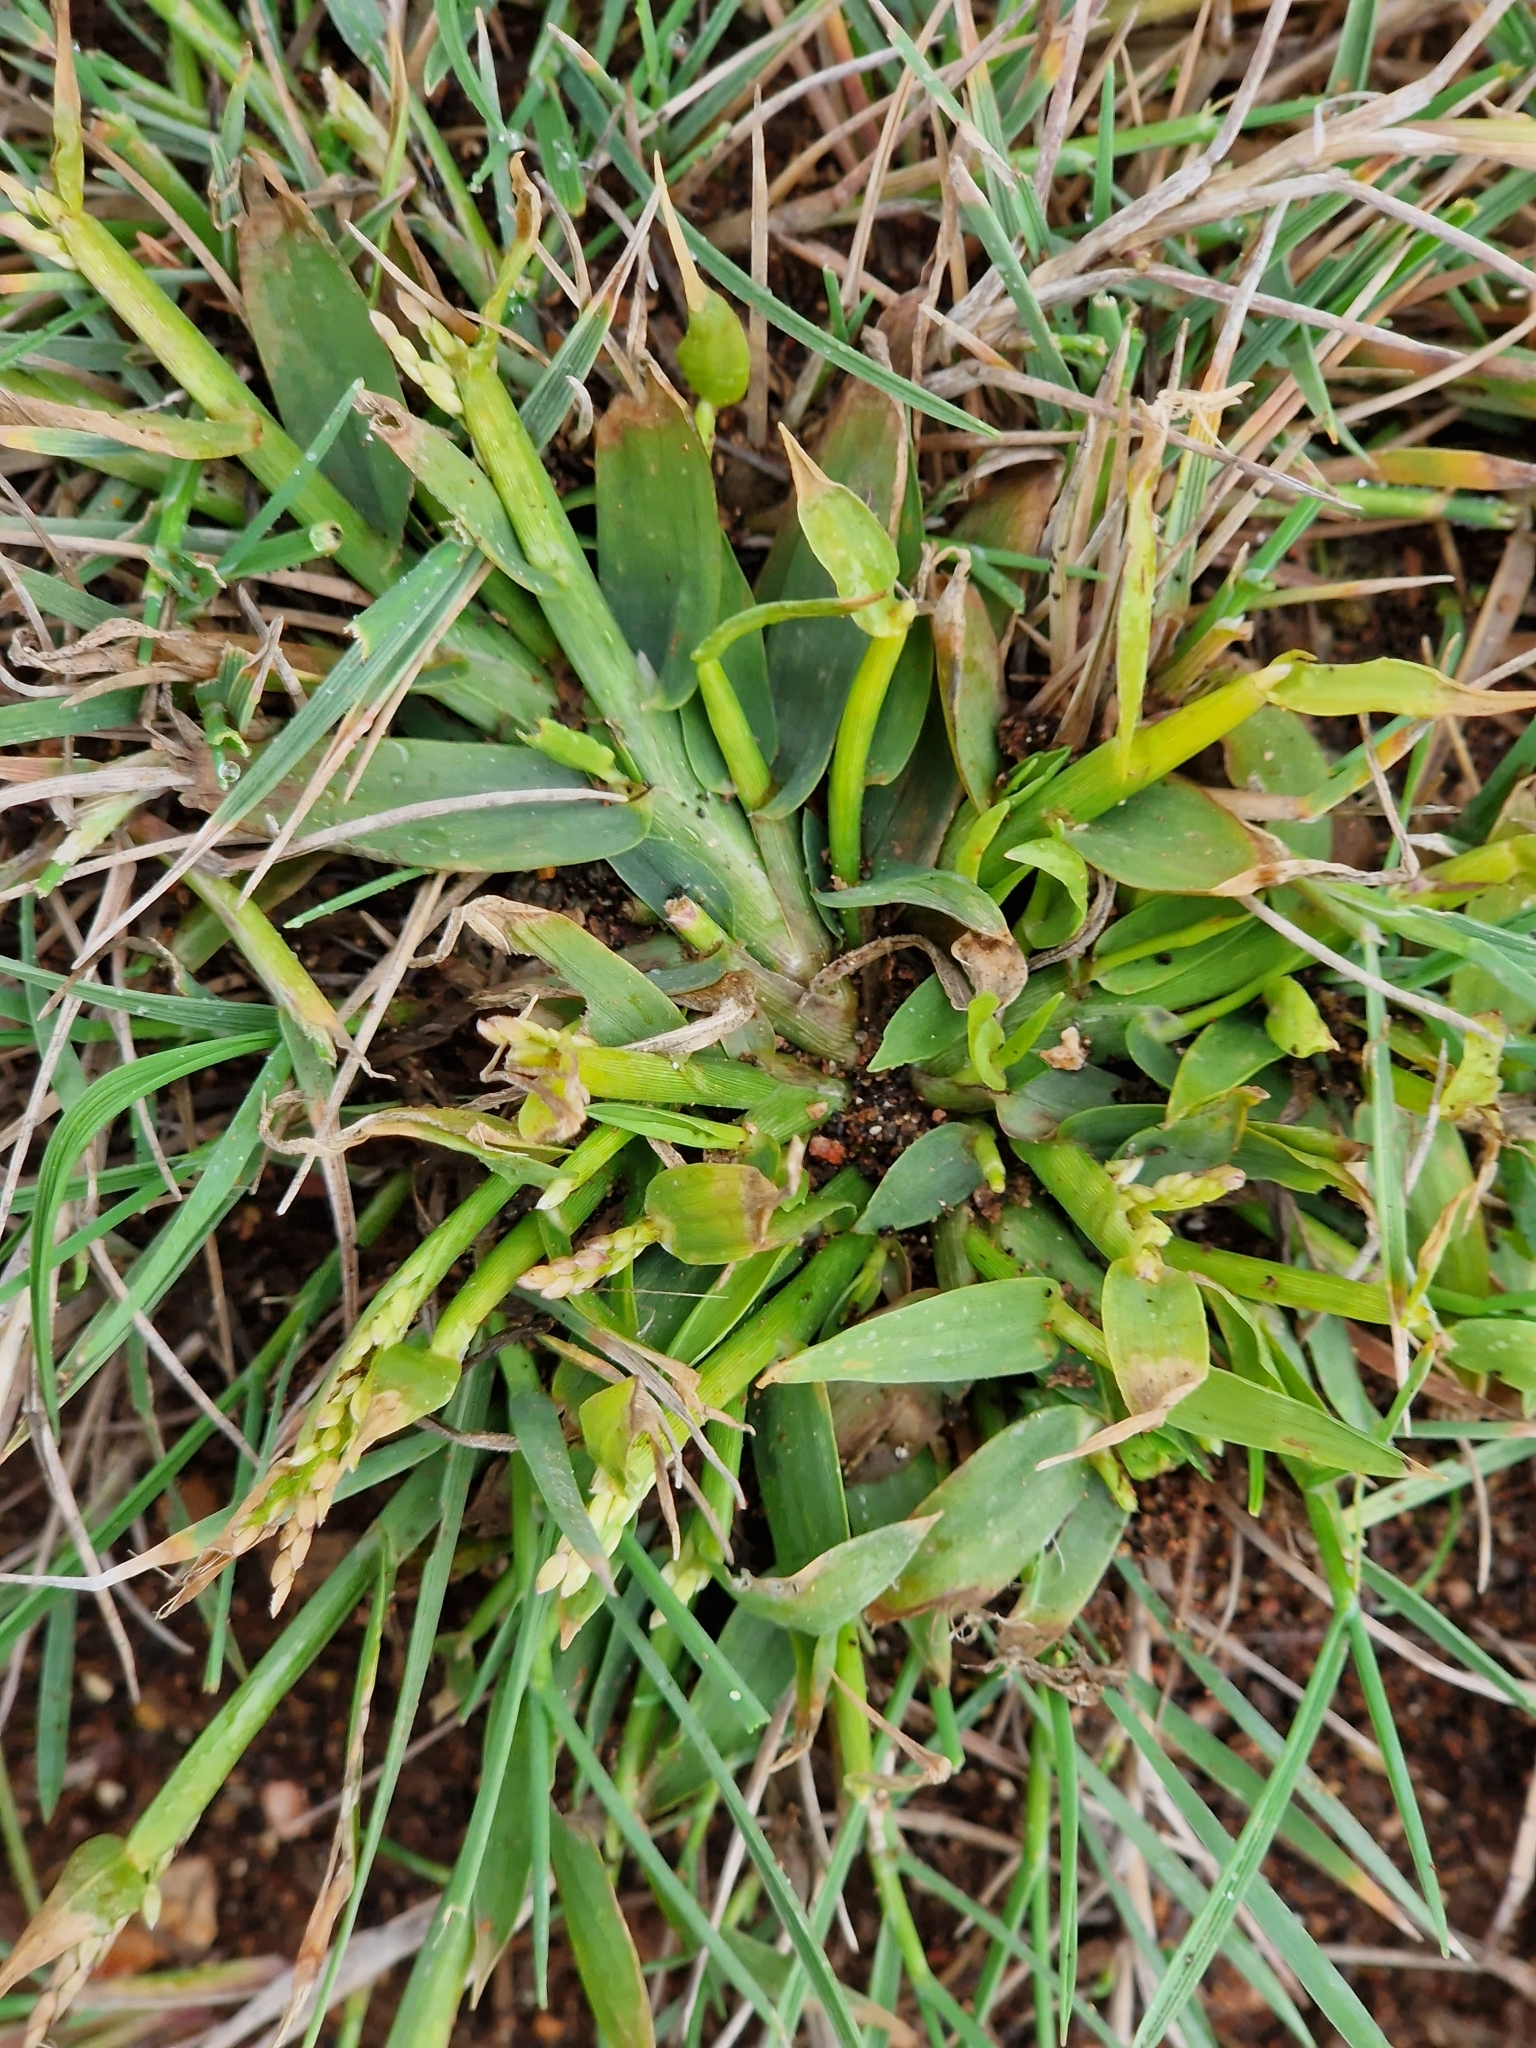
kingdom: Plantae
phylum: Tracheophyta
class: Liliopsida
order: Poales
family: Poaceae
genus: Digitaria
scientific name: Digitaria ischaemum
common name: Smooth crabgrass
